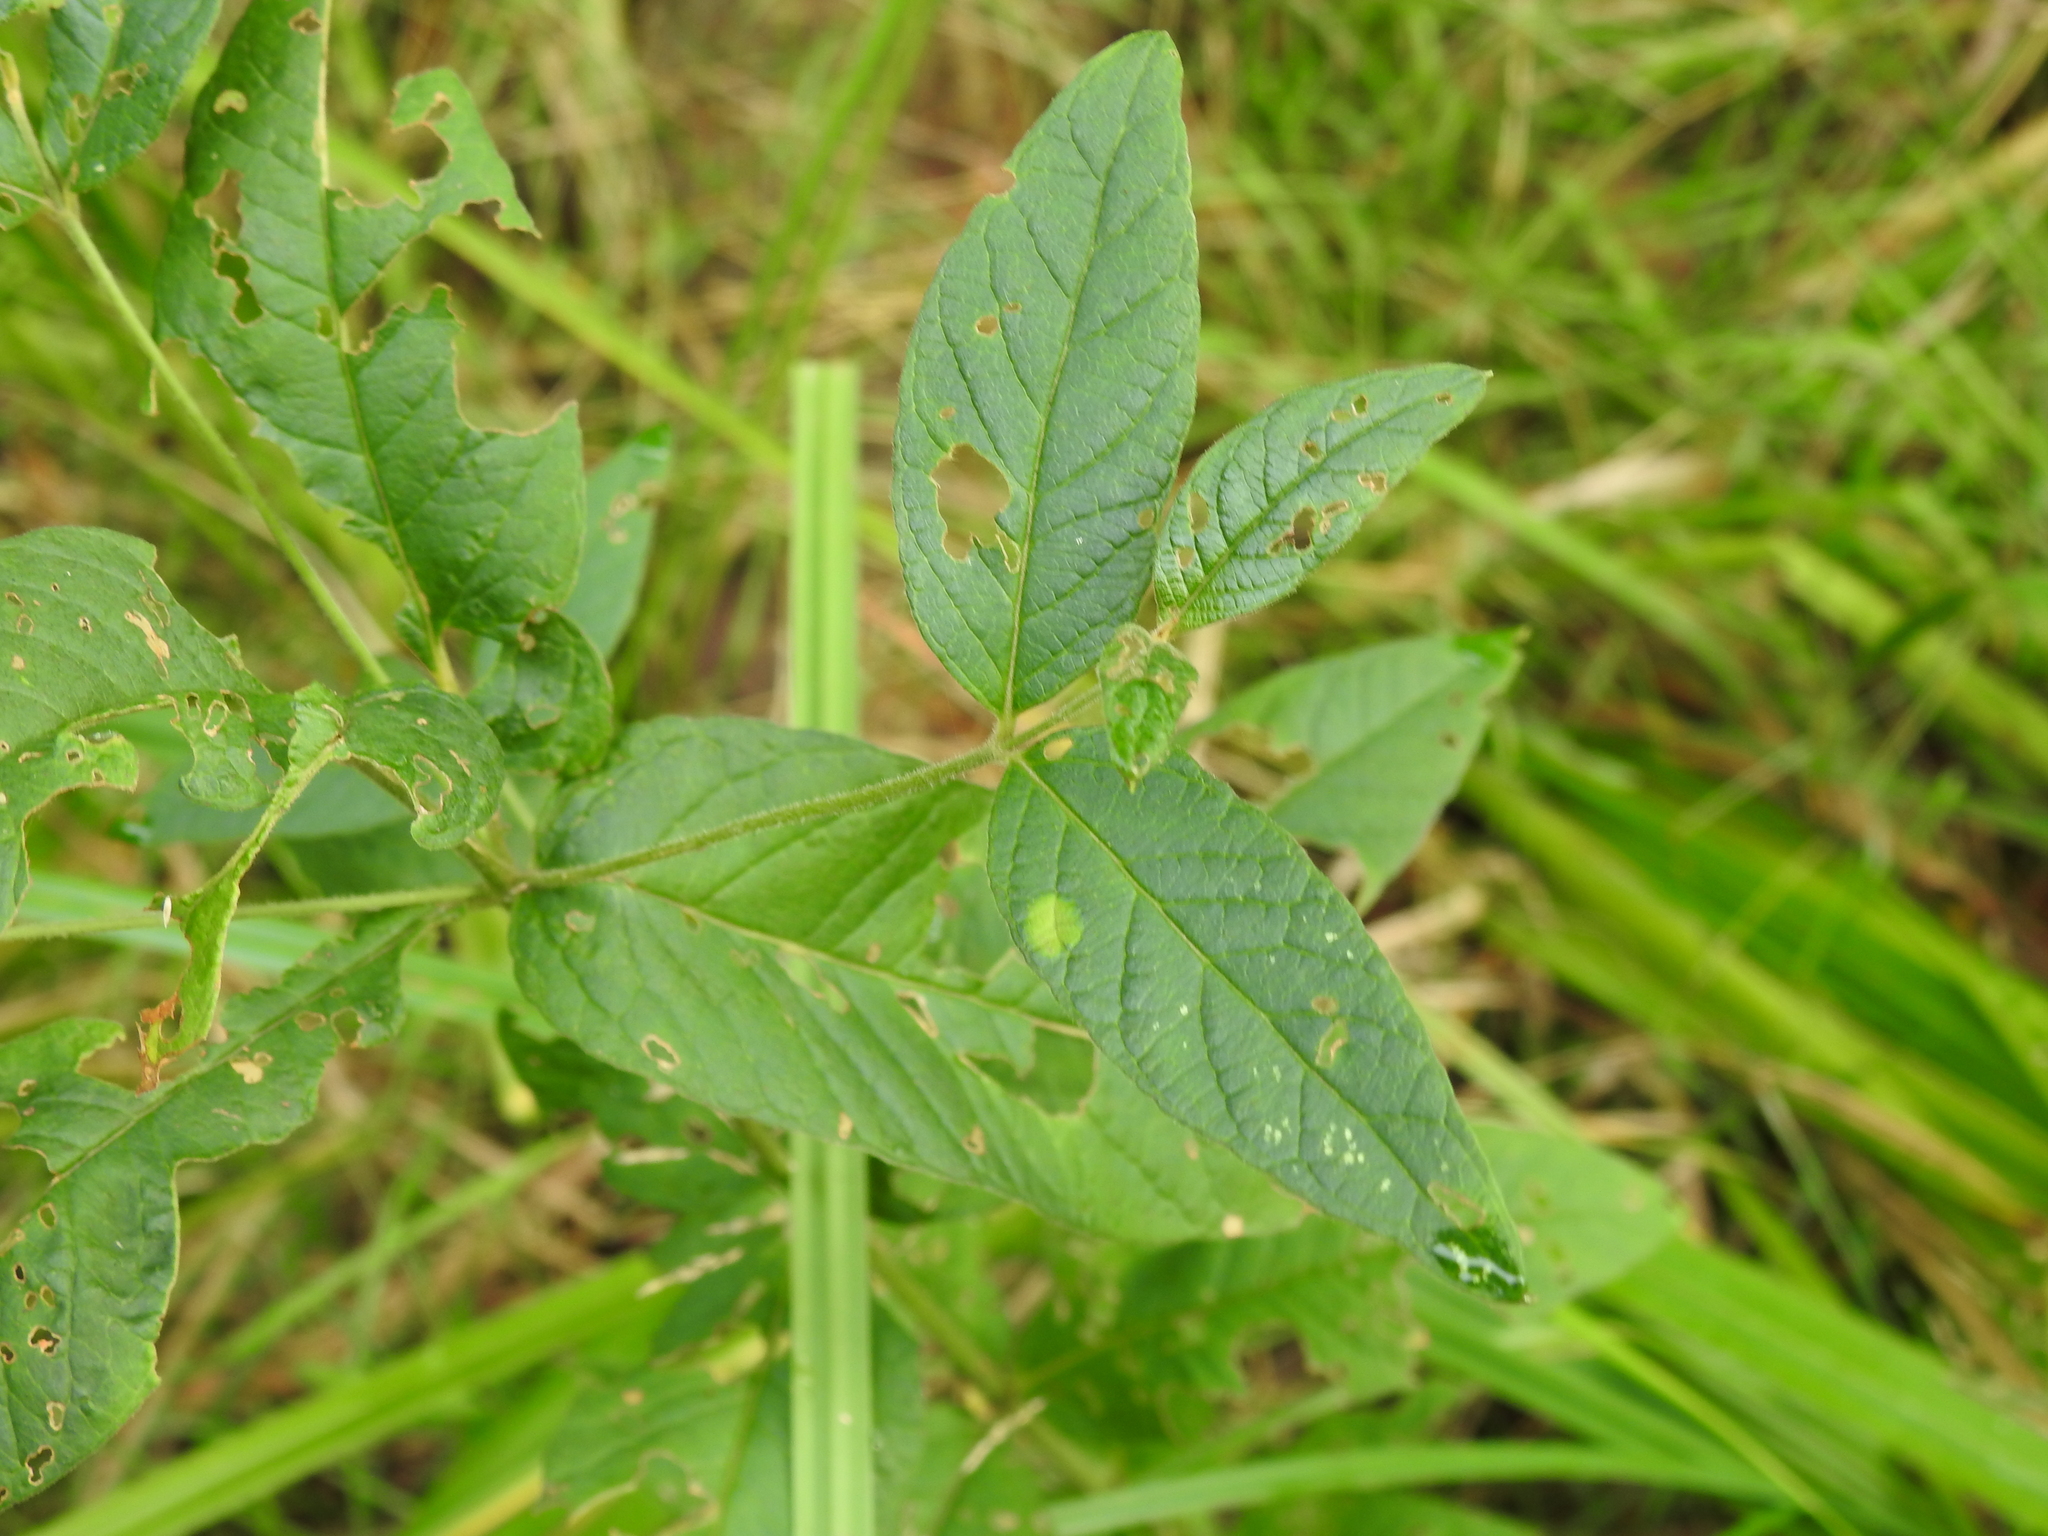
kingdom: Plantae
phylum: Tracheophyta
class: Magnoliopsida
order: Ericales
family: Primulaceae
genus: Lysimachia
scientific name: Lysimachia vulgaris
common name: Yellow loosestrife
